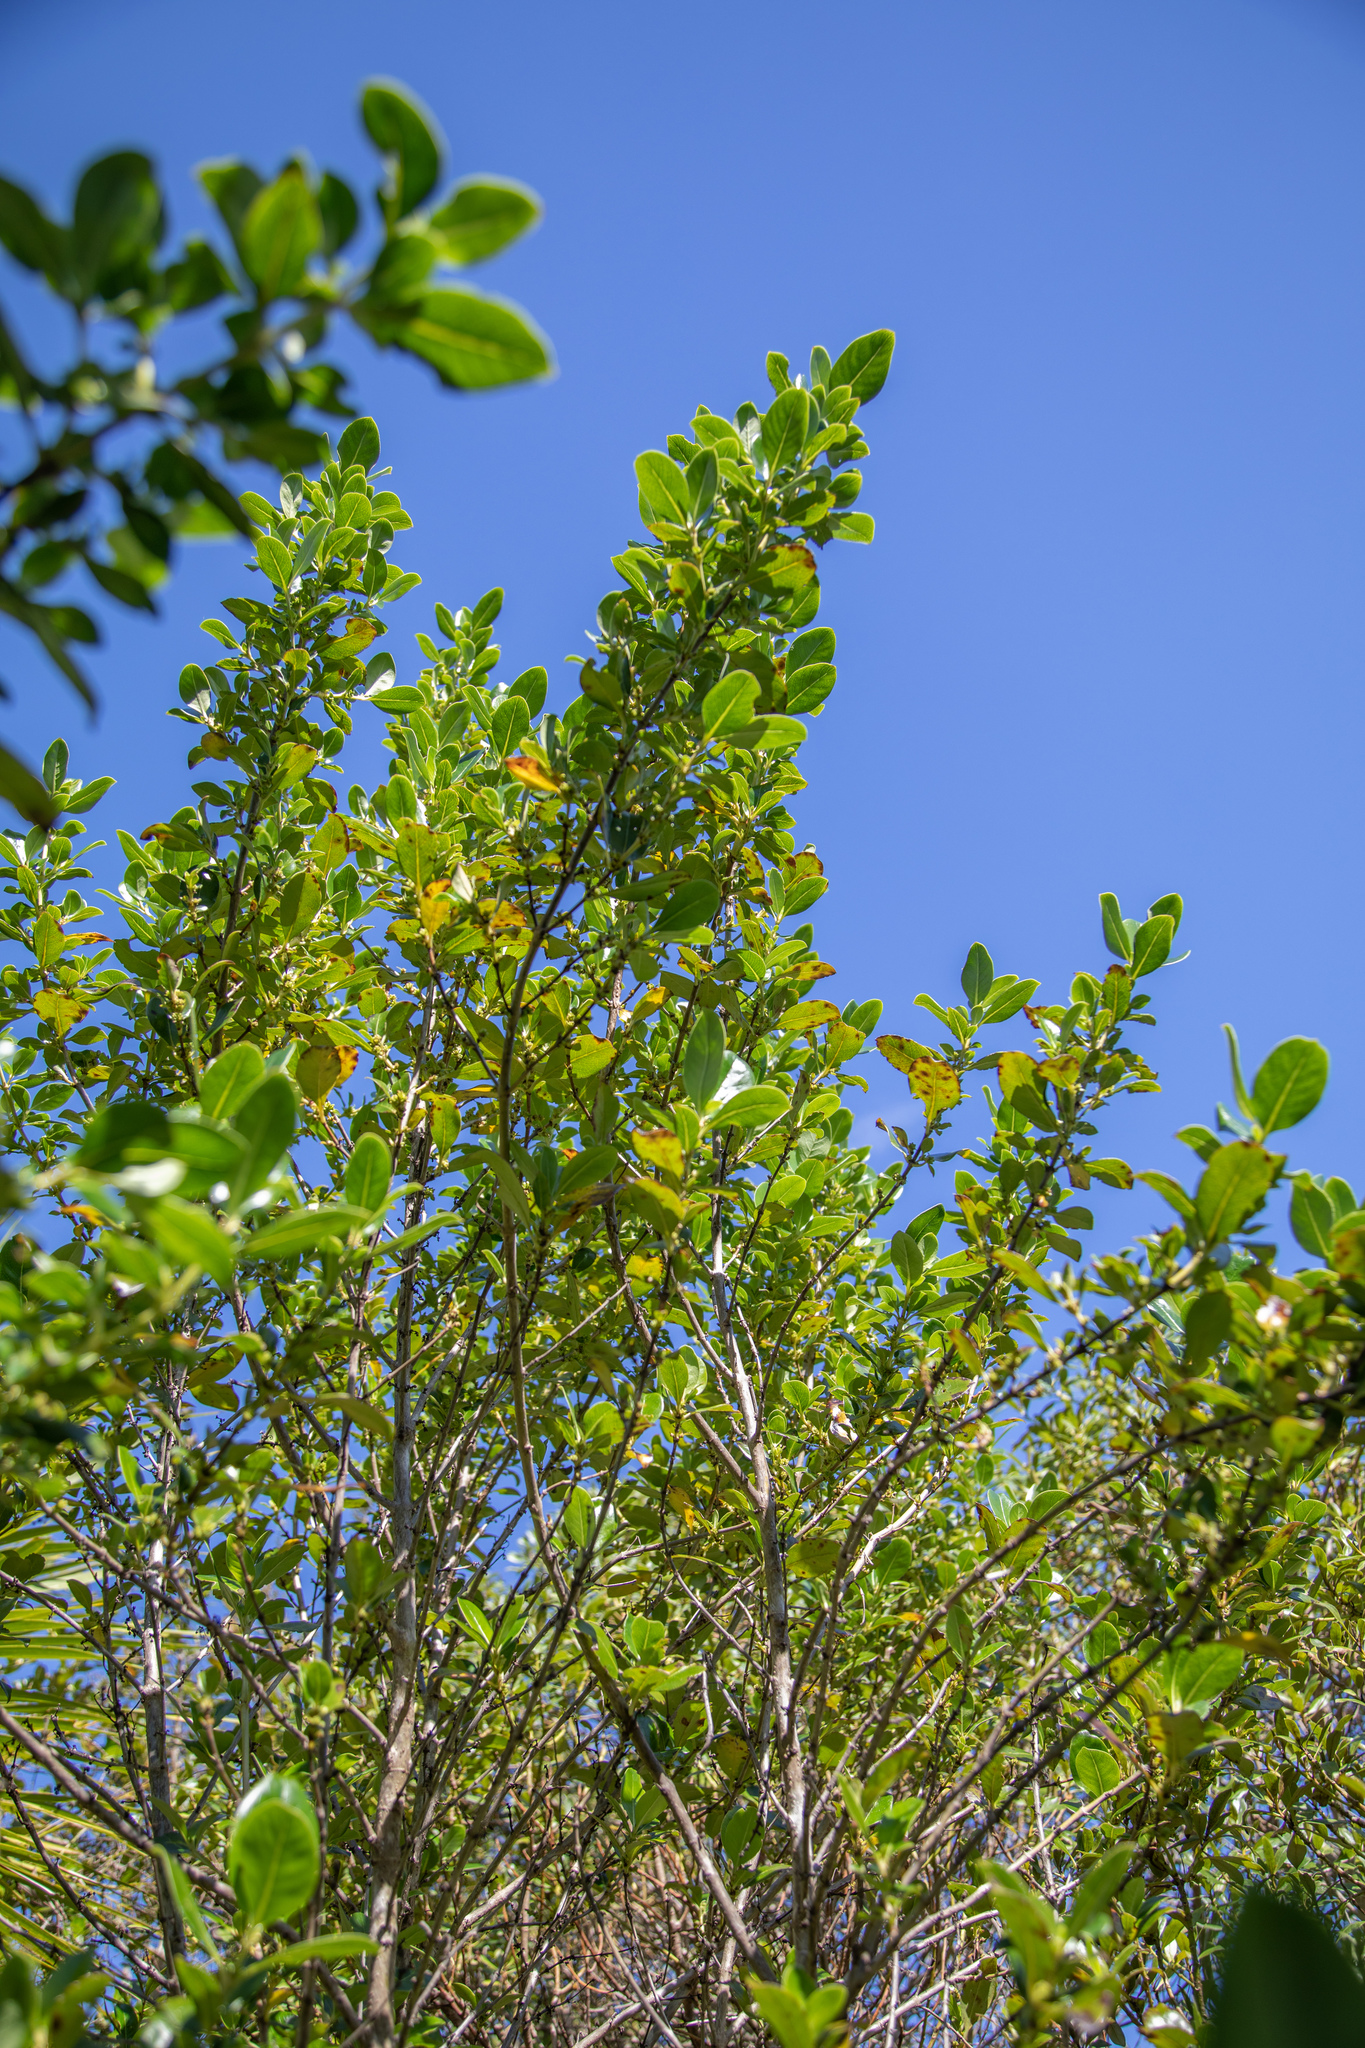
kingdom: Plantae
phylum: Tracheophyta
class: Magnoliopsida
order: Gentianales
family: Rubiaceae
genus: Coprosma
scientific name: Coprosma robusta
